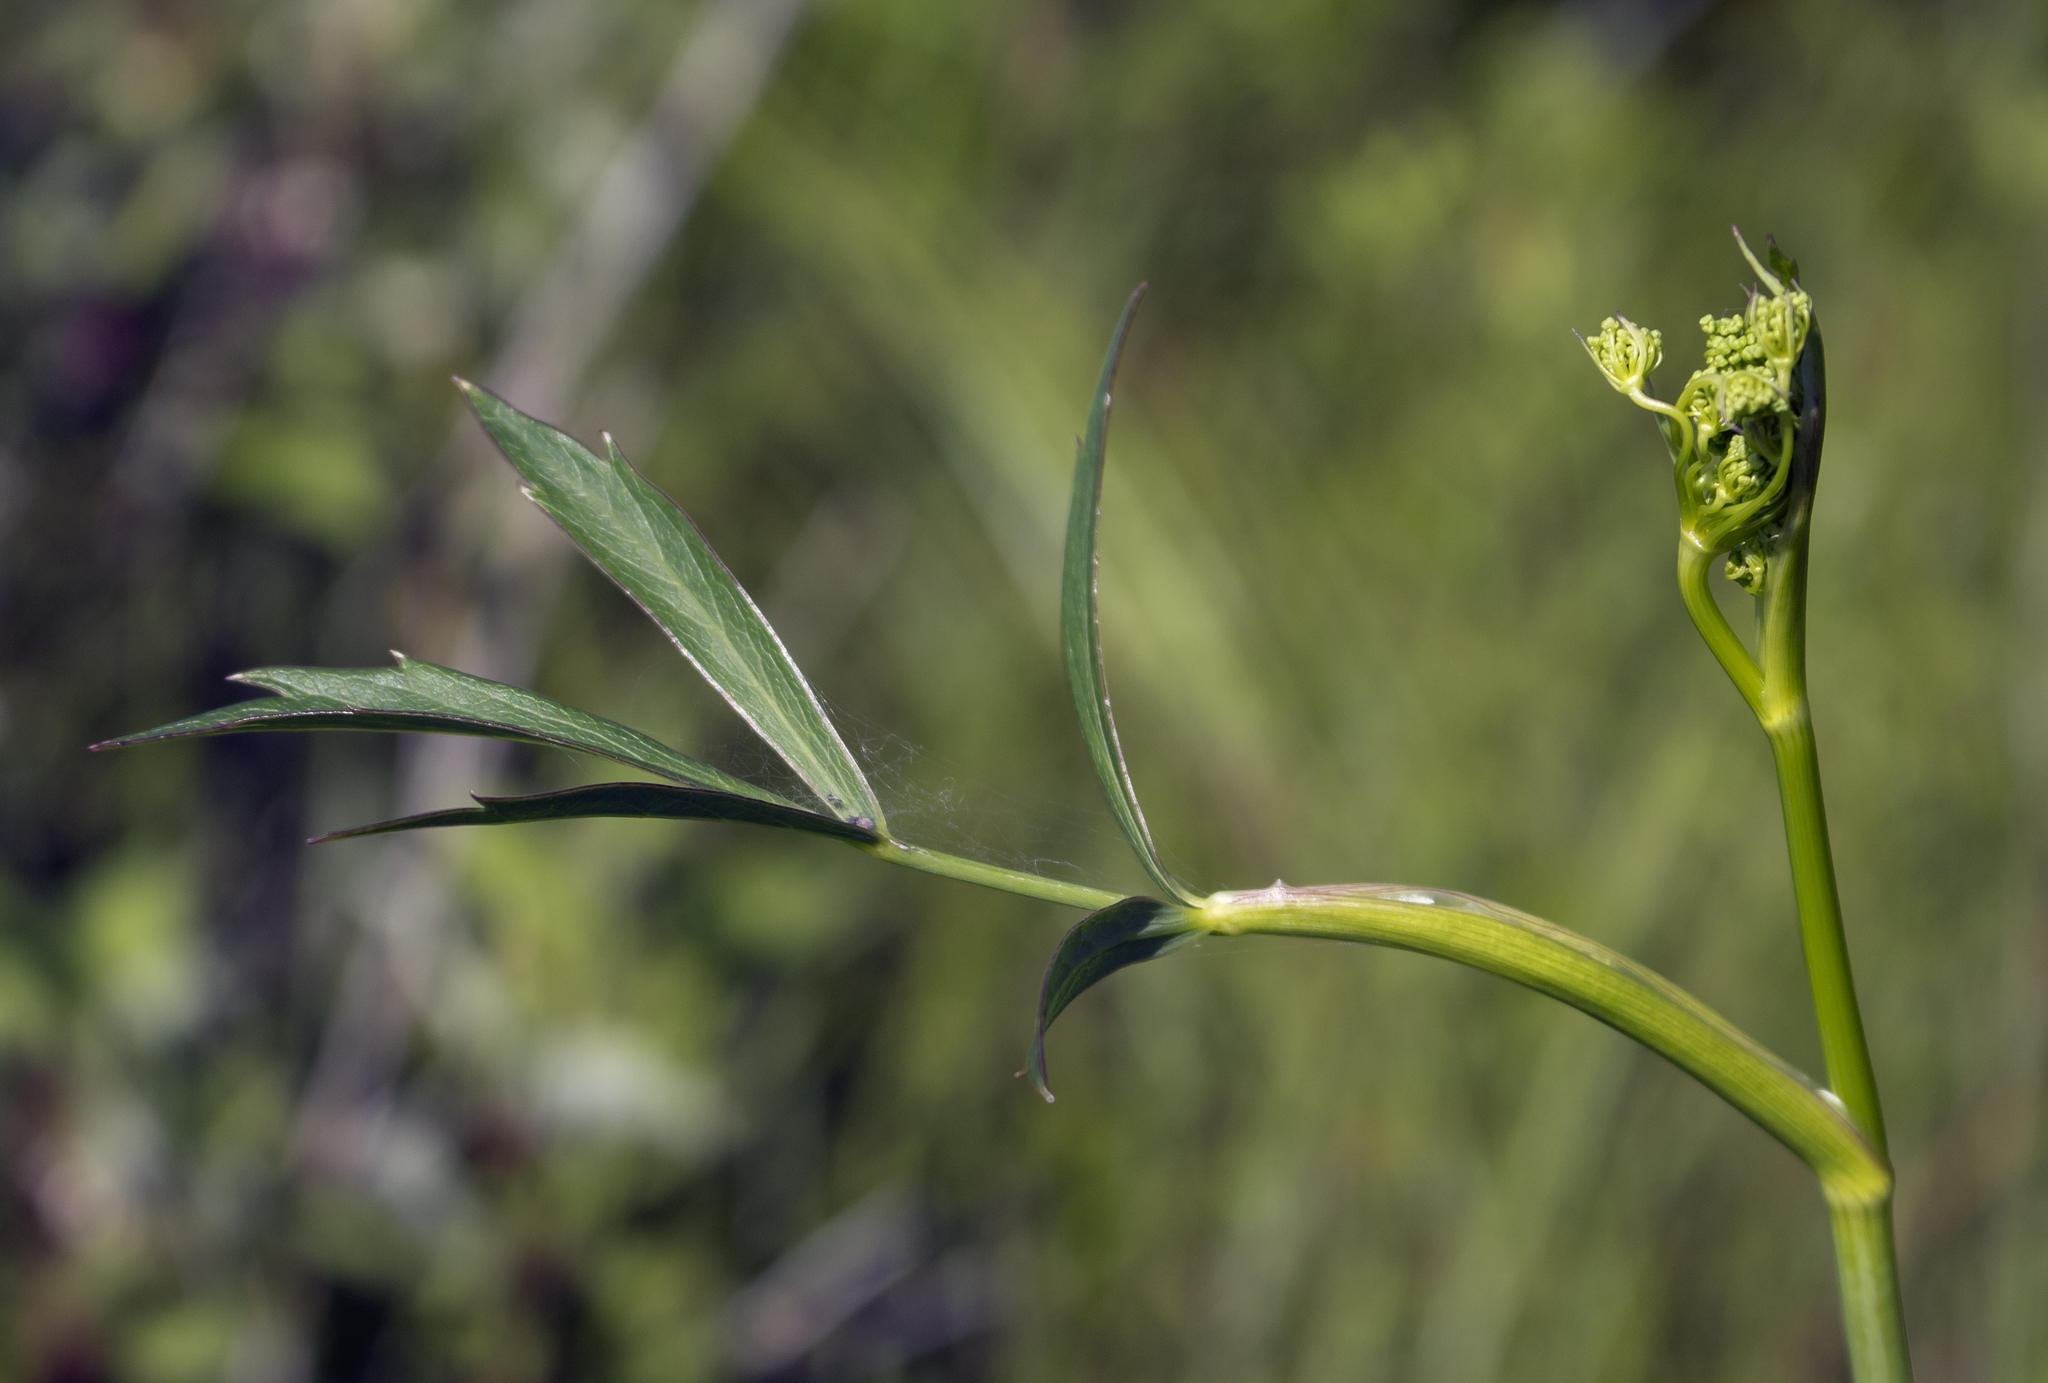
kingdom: Plantae
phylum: Tracheophyta
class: Magnoliopsida
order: Apiales
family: Apiaceae
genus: Oxypolis
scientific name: Oxypolis rigidior
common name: Cowbane
